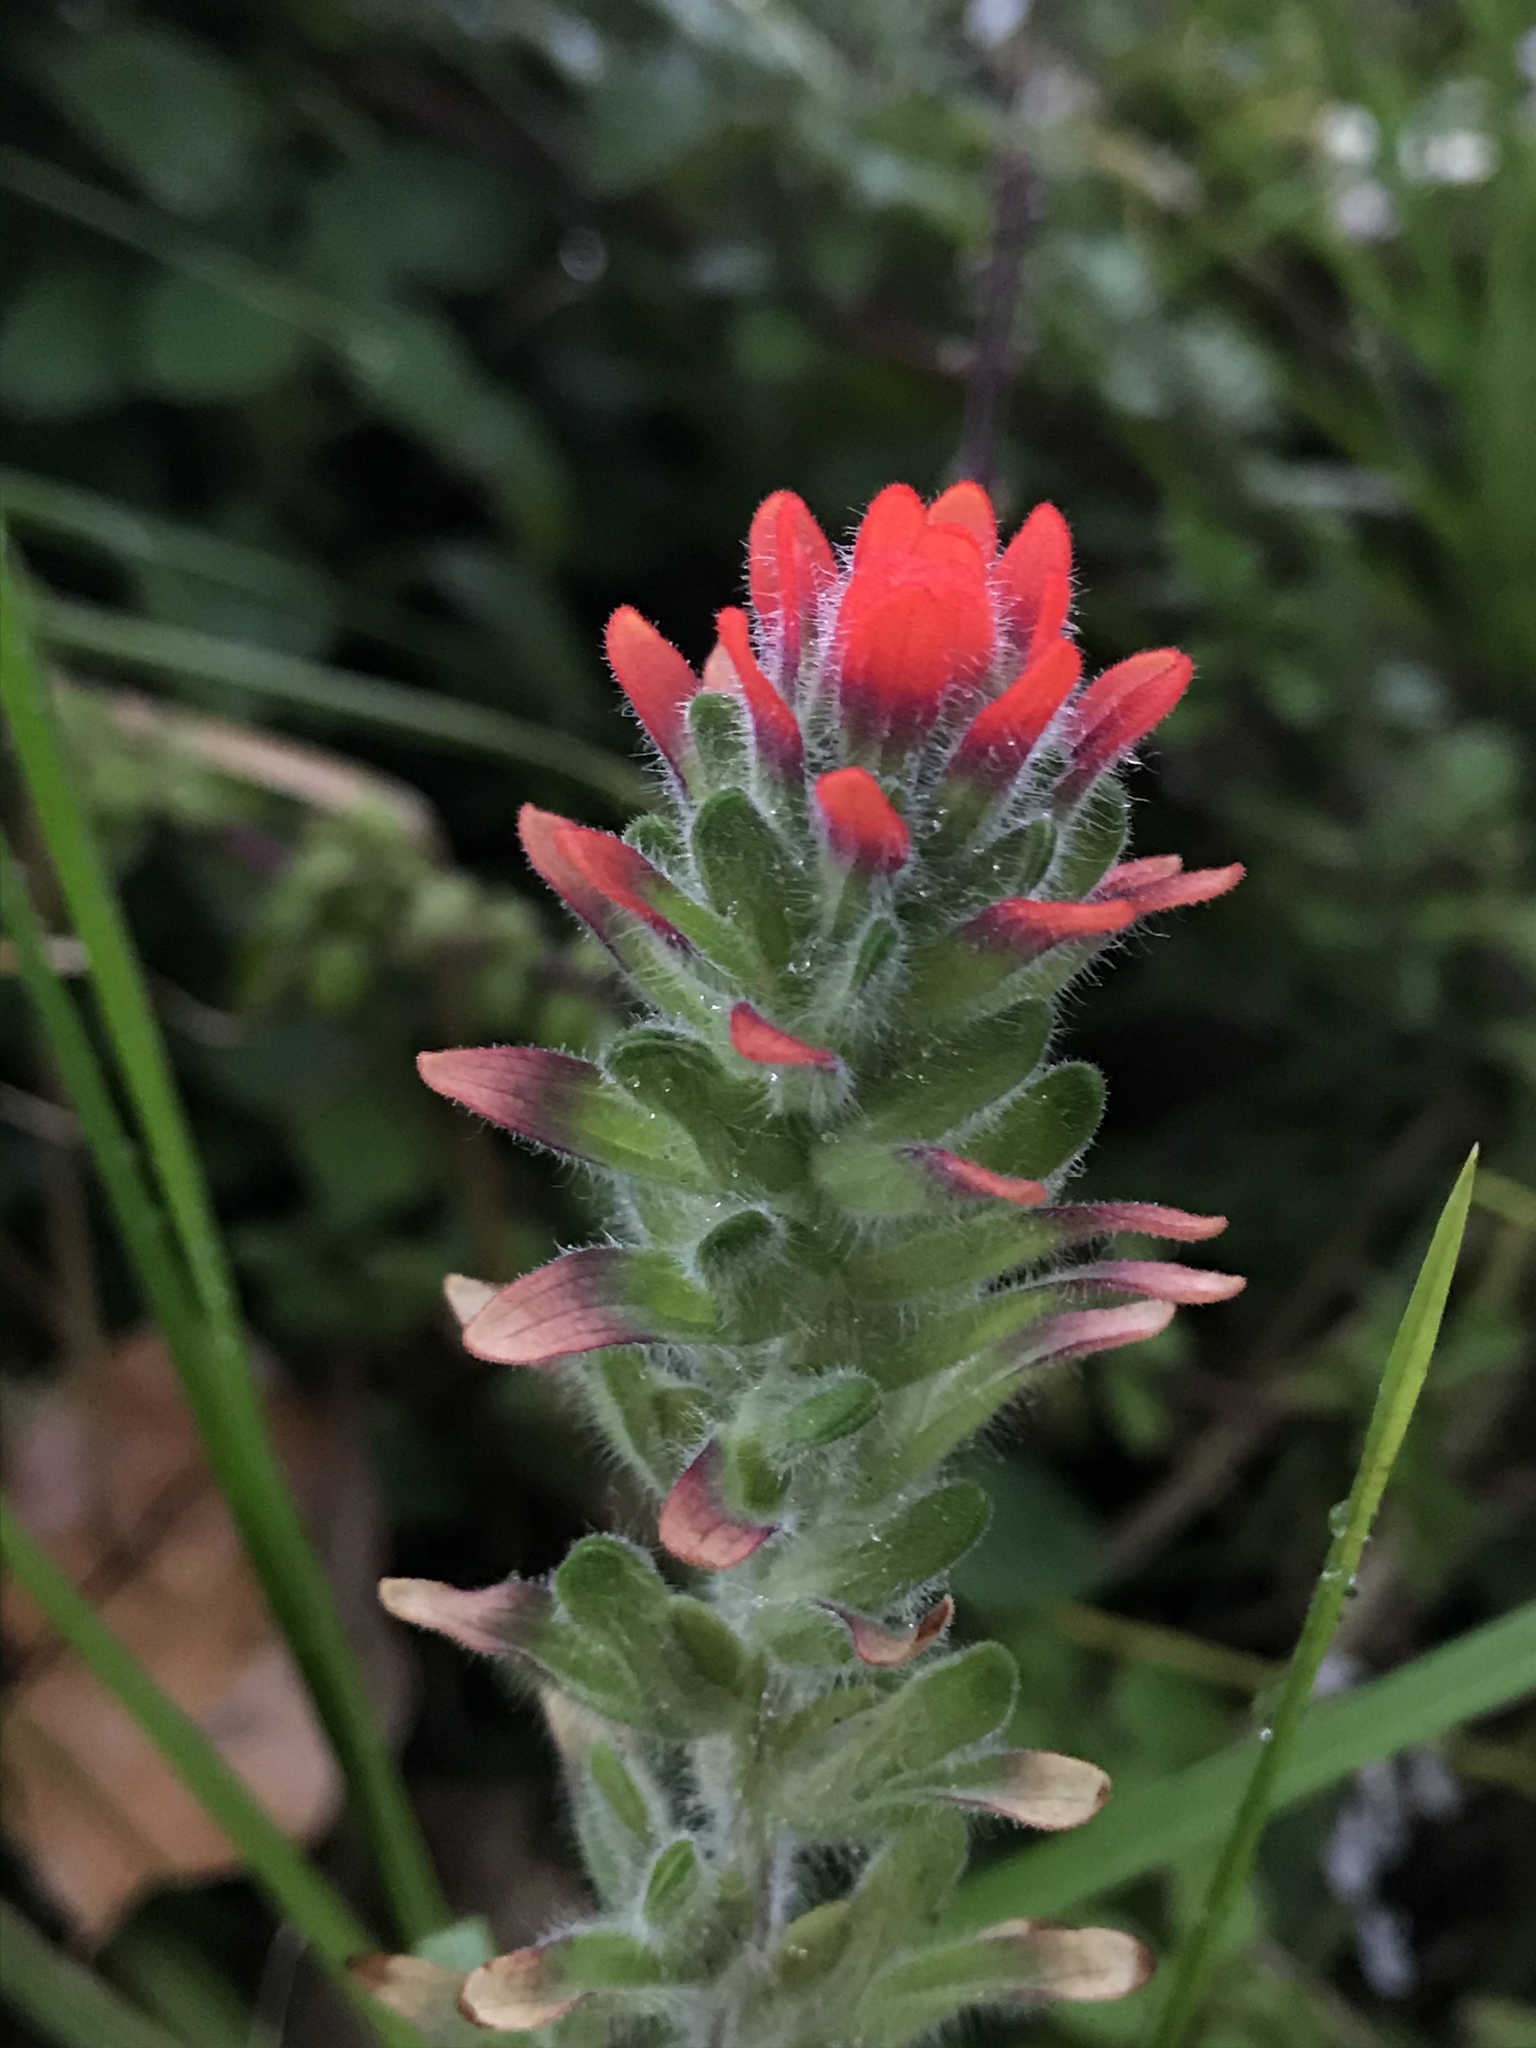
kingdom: Plantae
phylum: Tracheophyta
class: Magnoliopsida
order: Lamiales
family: Orobanchaceae
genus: Castilleja
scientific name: Castilleja arvensis
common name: Indian paintbrush
